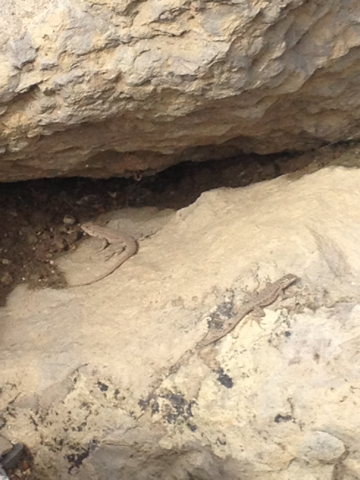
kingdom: Animalia
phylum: Chordata
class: Squamata
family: Phrynosomatidae
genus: Uta
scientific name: Uta stansburiana
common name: Side-blotched lizard
